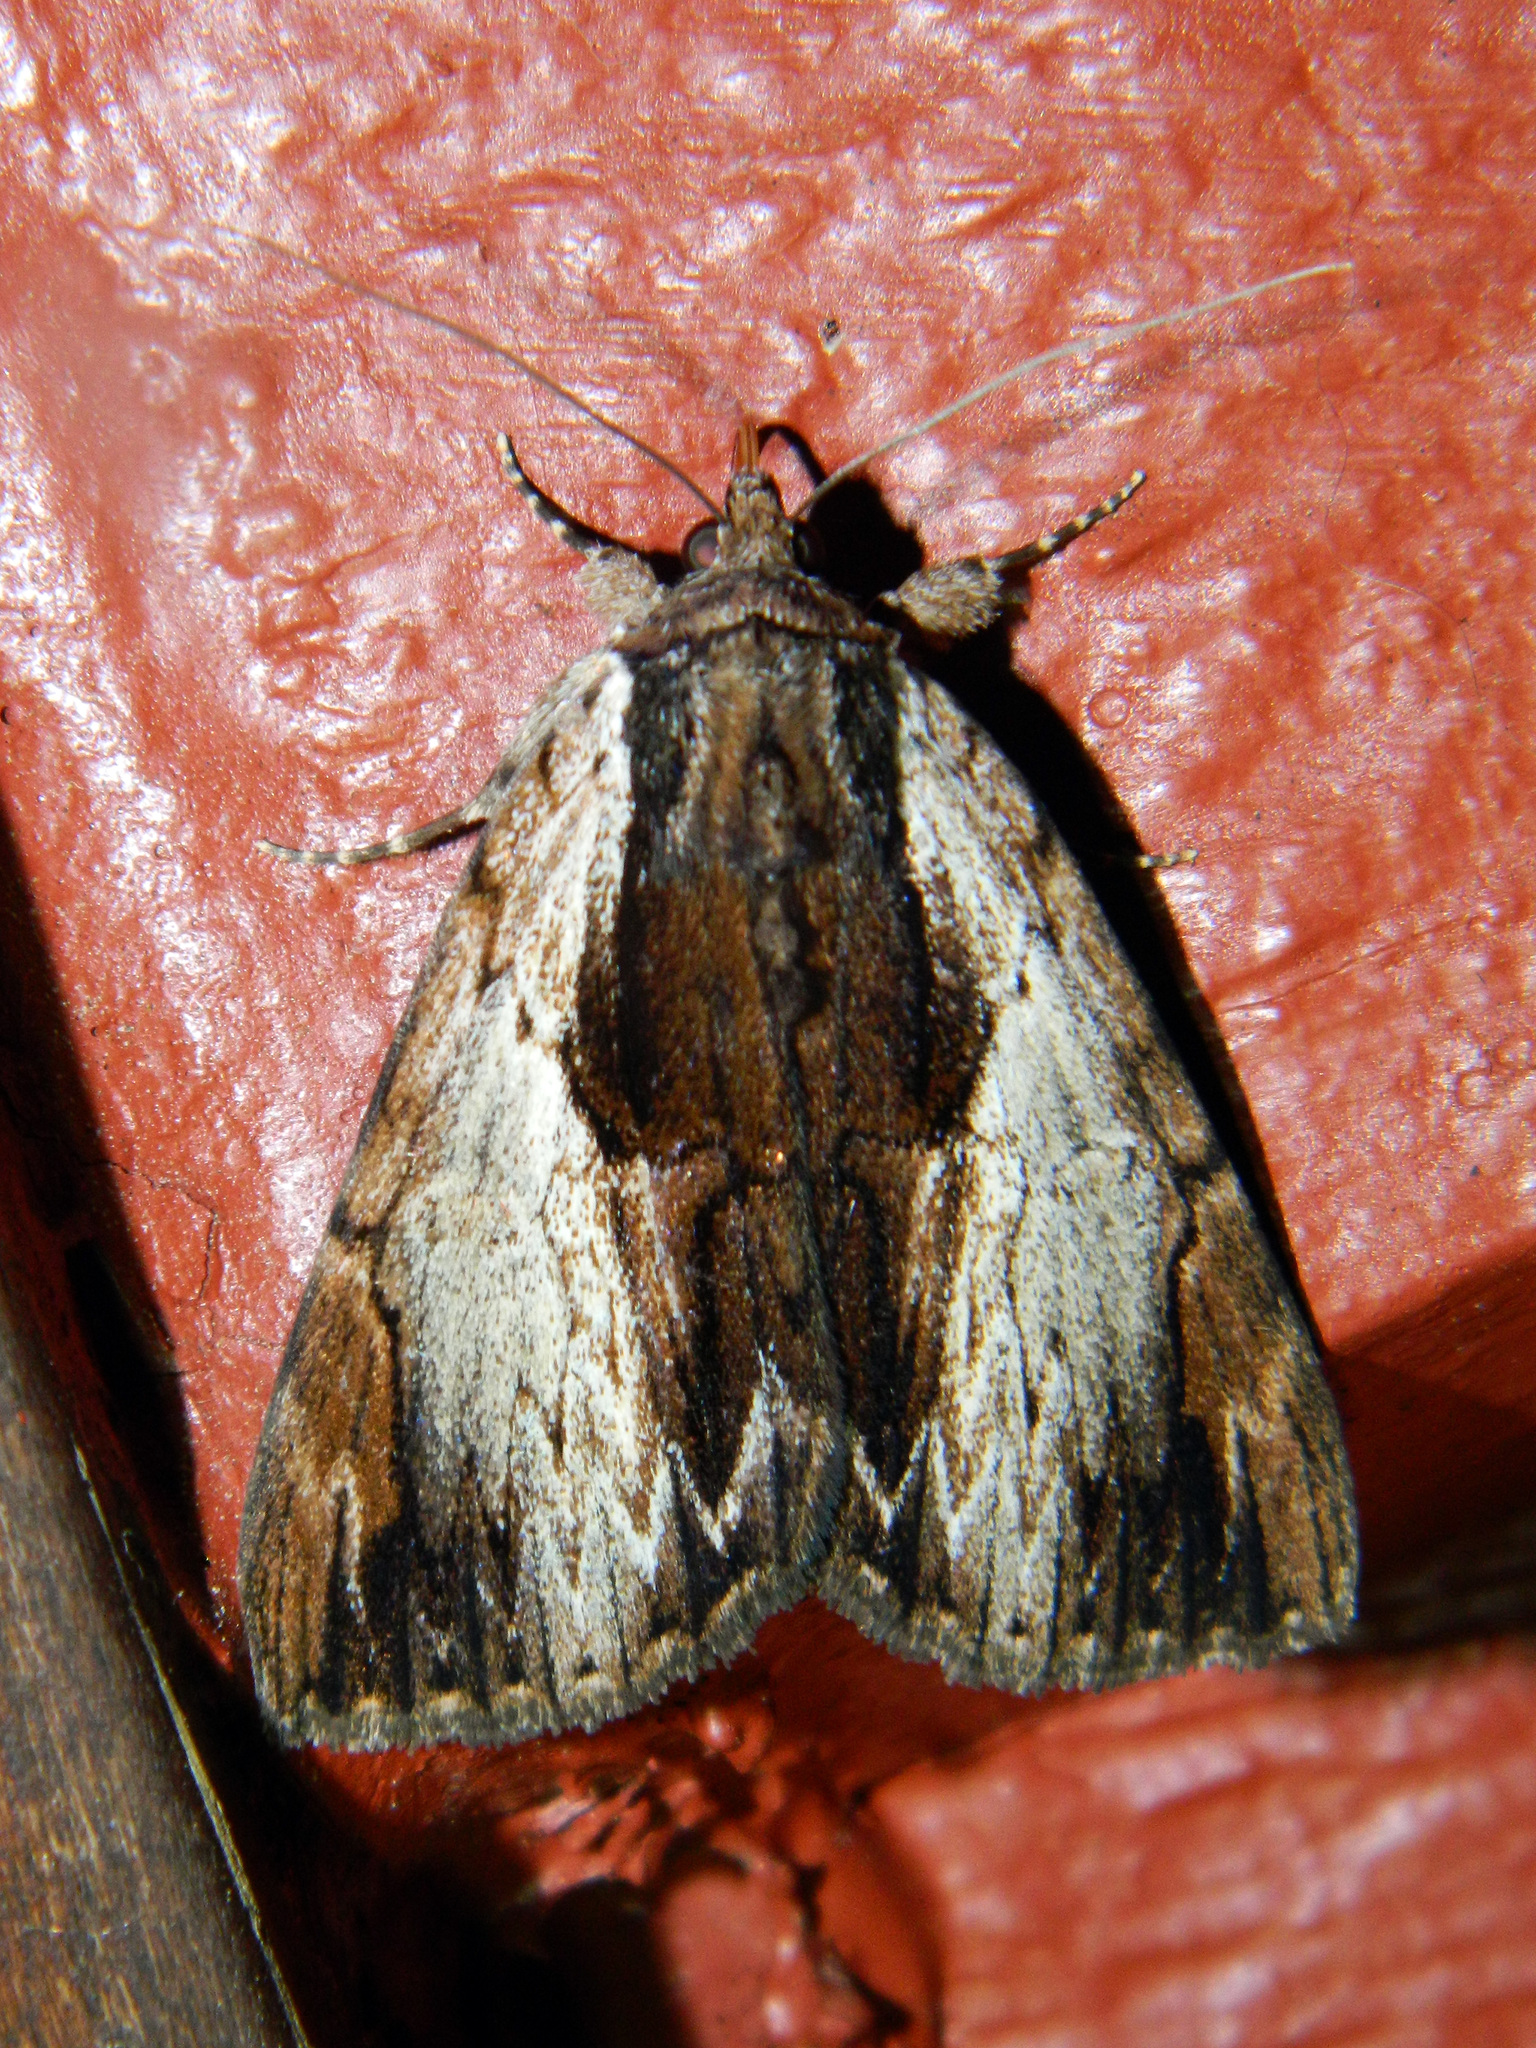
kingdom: Animalia
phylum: Arthropoda
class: Insecta
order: Lepidoptera
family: Erebidae
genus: Catocala
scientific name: Catocala ultronia
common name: Ultronia underwing
